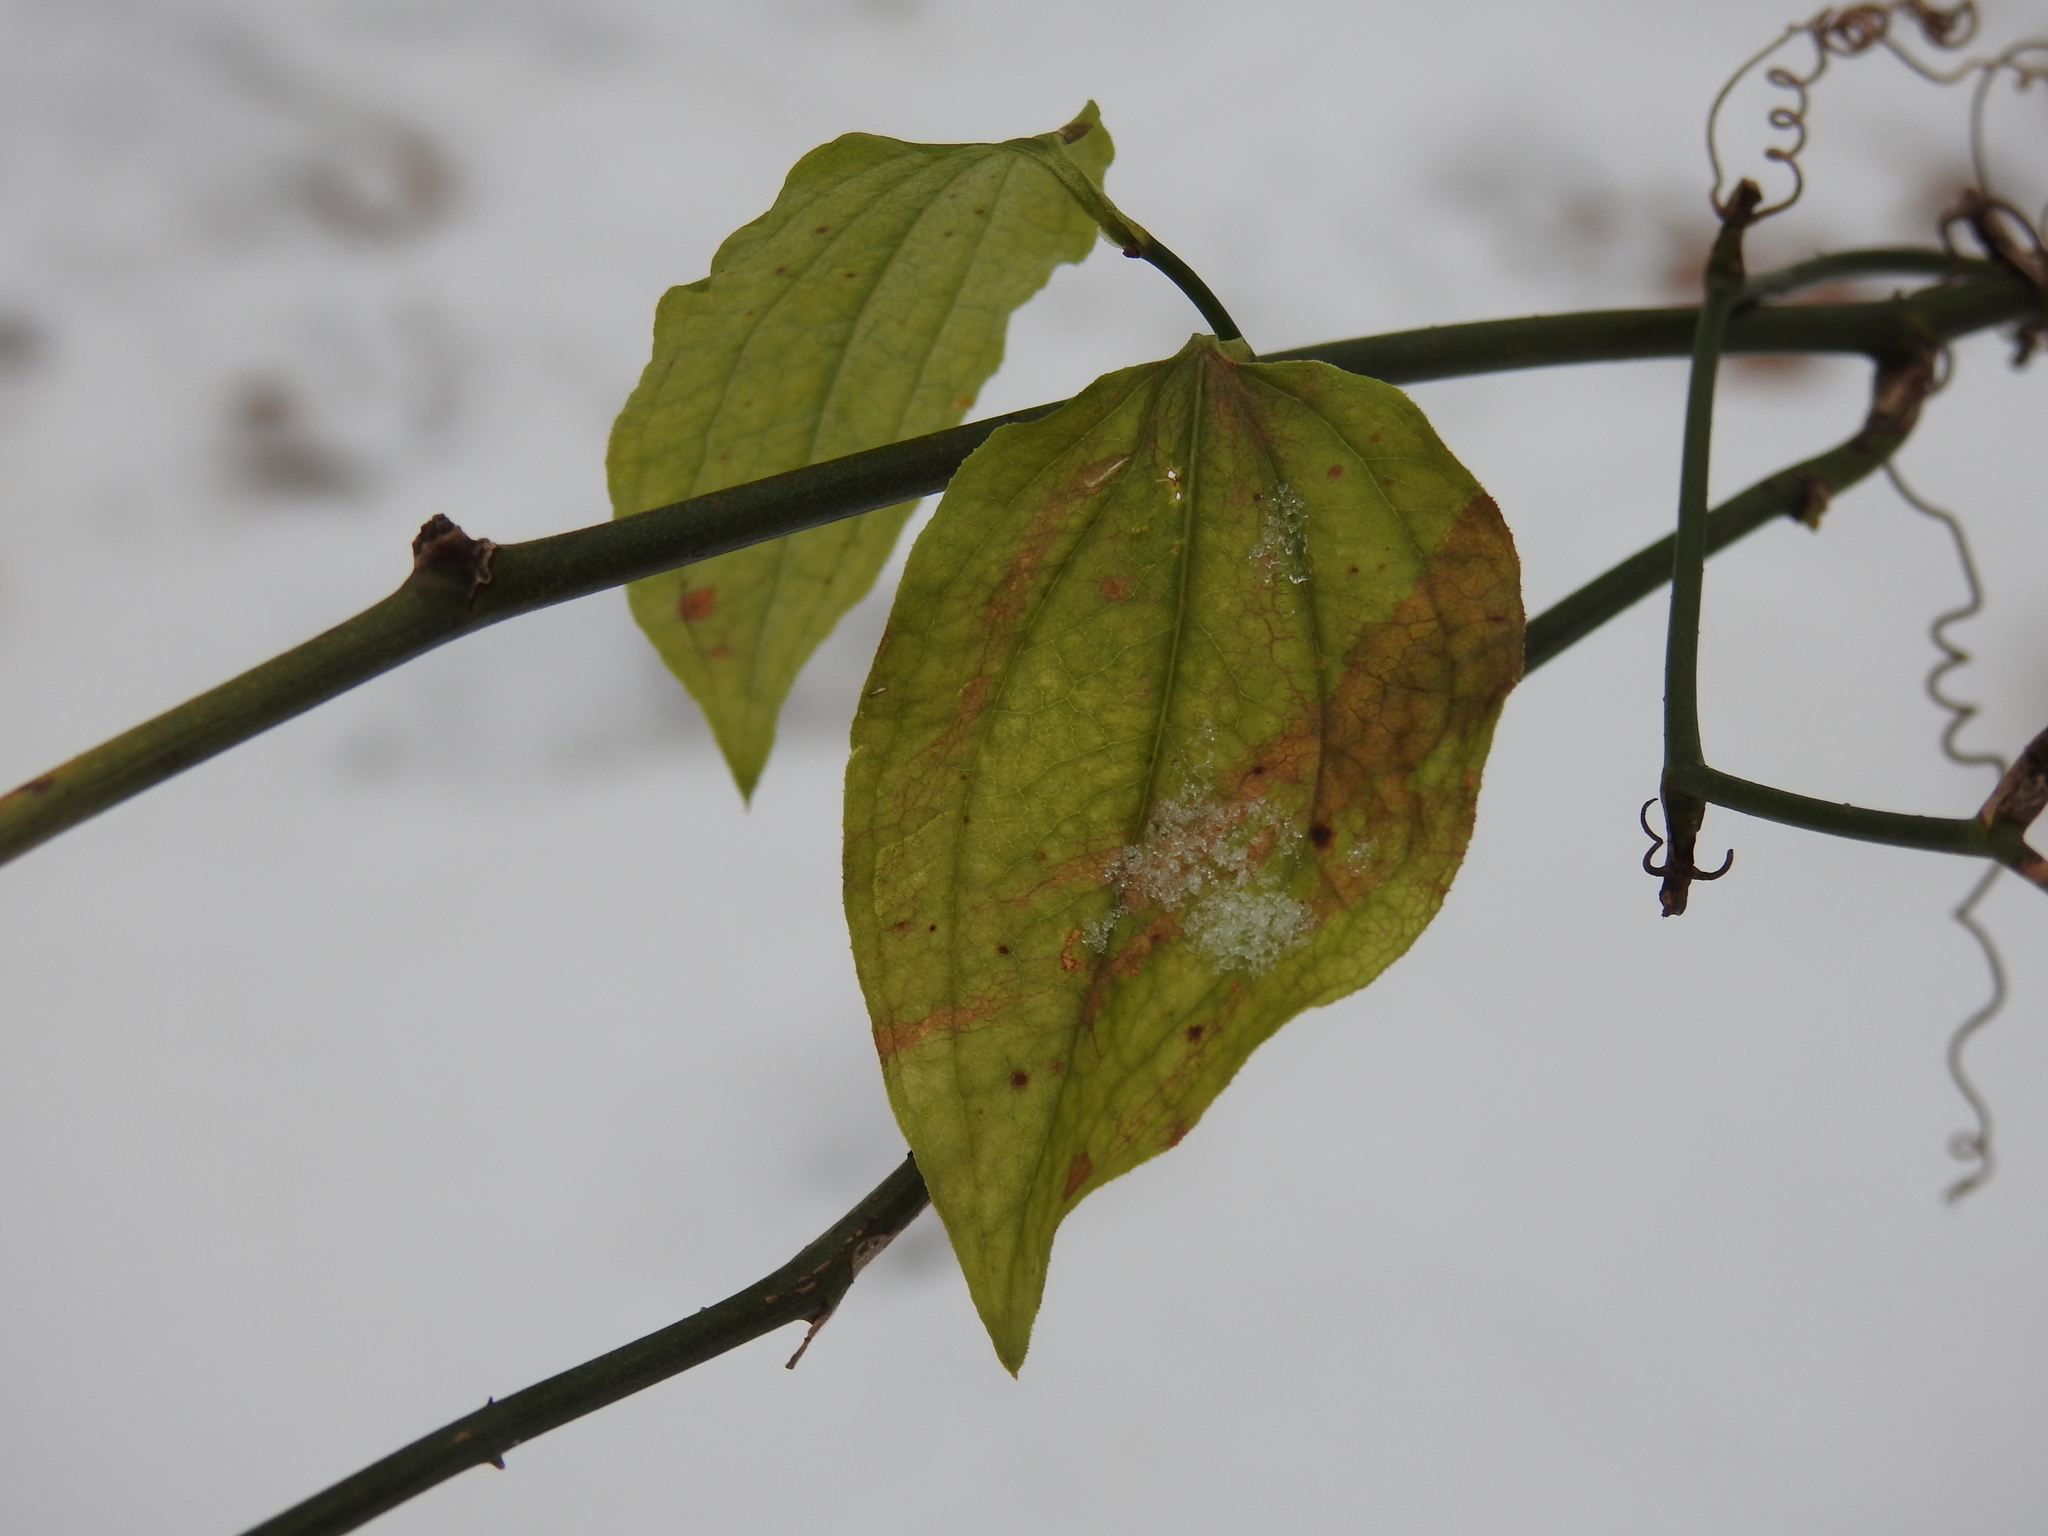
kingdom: Plantae
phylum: Tracheophyta
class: Liliopsida
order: Liliales
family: Smilacaceae
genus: Smilax
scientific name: Smilax tamnoides
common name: Hellfetter
